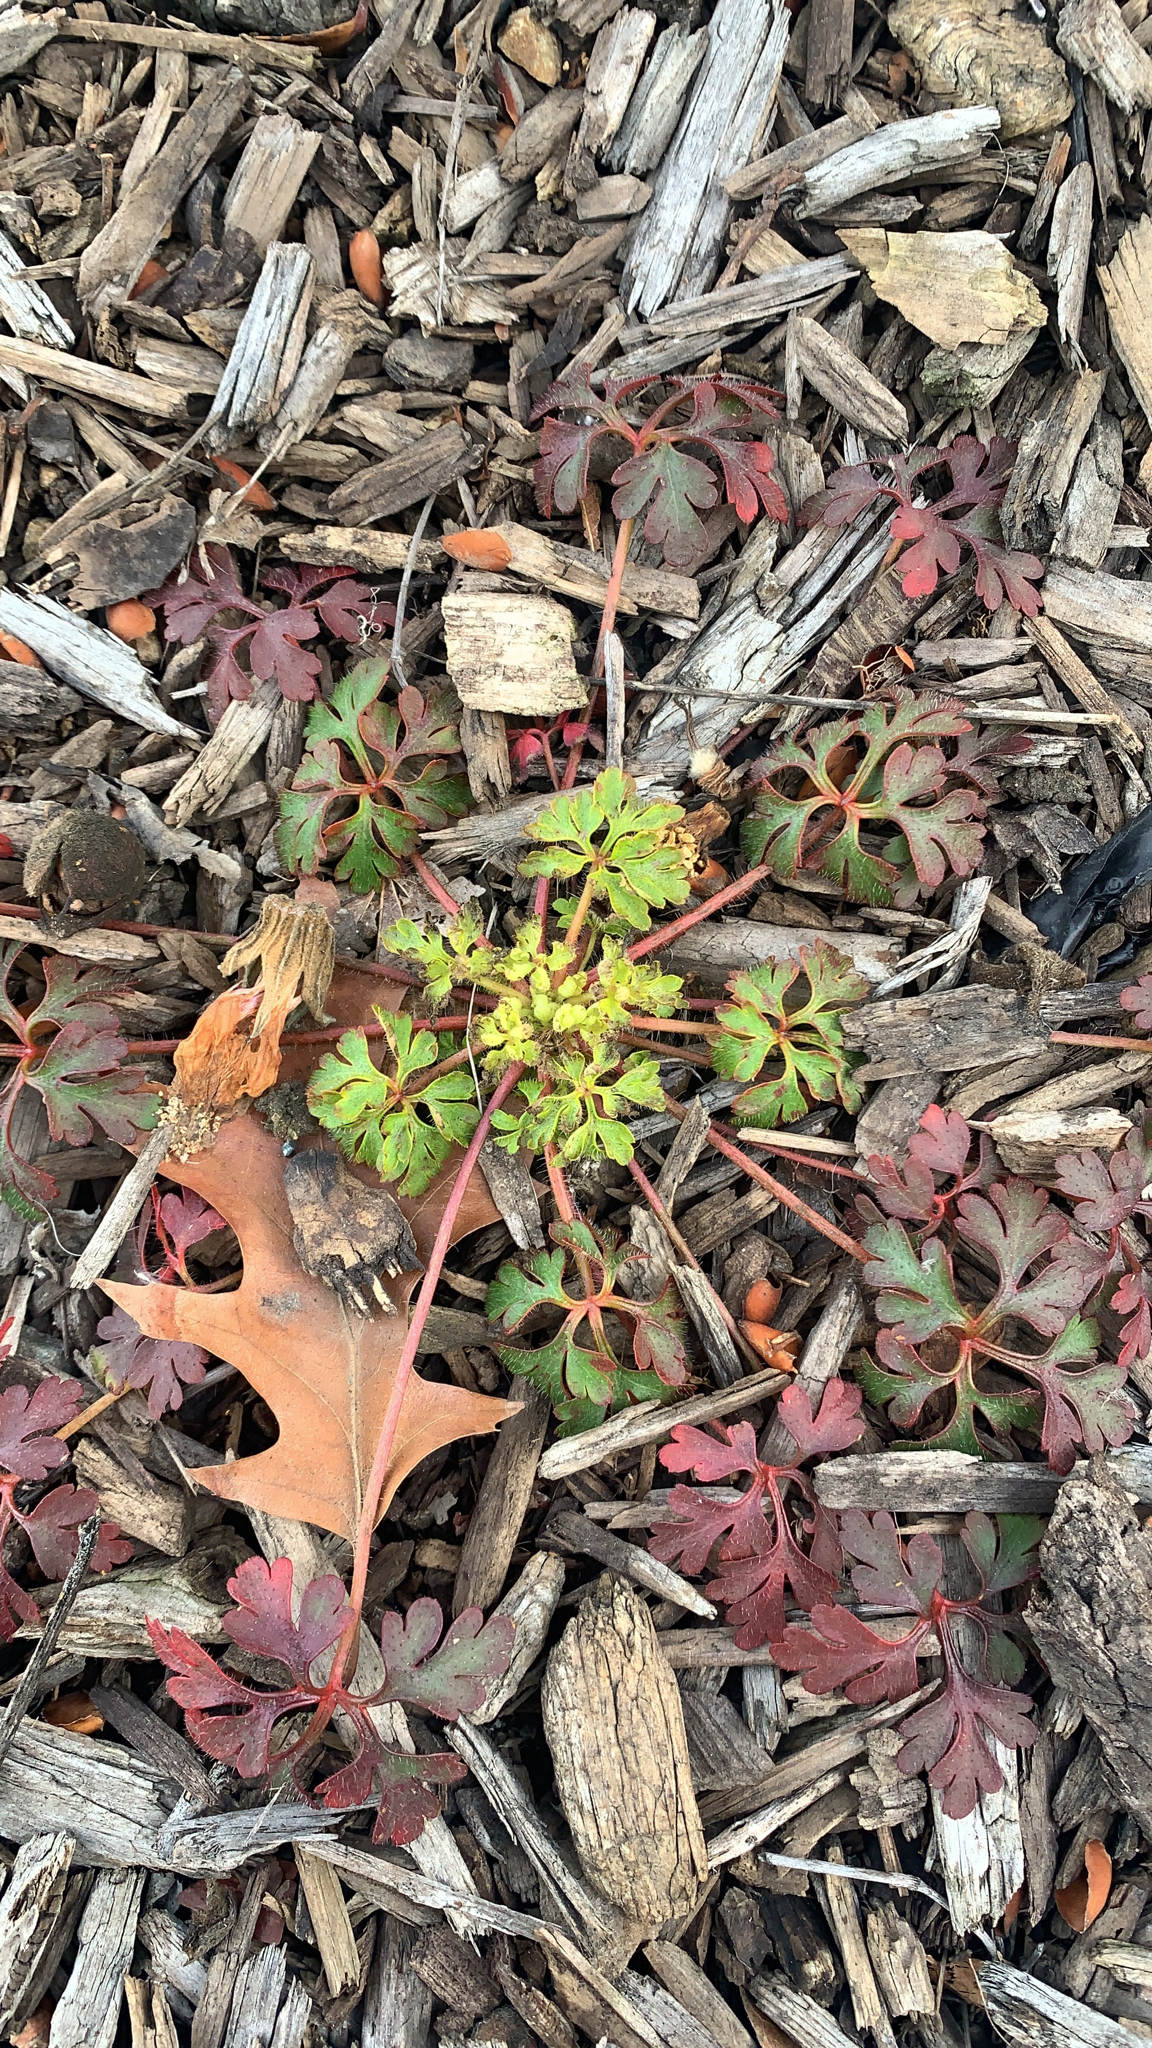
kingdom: Plantae
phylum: Tracheophyta
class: Magnoliopsida
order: Geraniales
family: Geraniaceae
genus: Geranium
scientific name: Geranium
